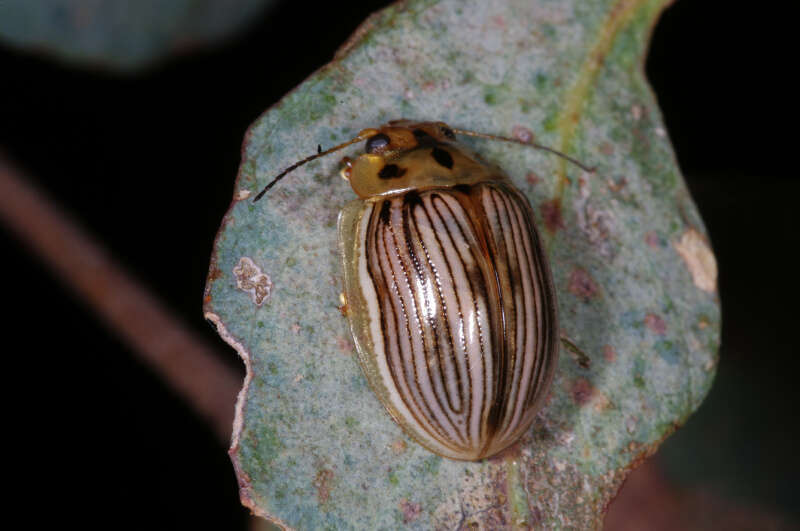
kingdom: Animalia
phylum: Arthropoda
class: Insecta
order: Coleoptera
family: Chrysomelidae
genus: Paropsisterna
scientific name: Paropsisterna
